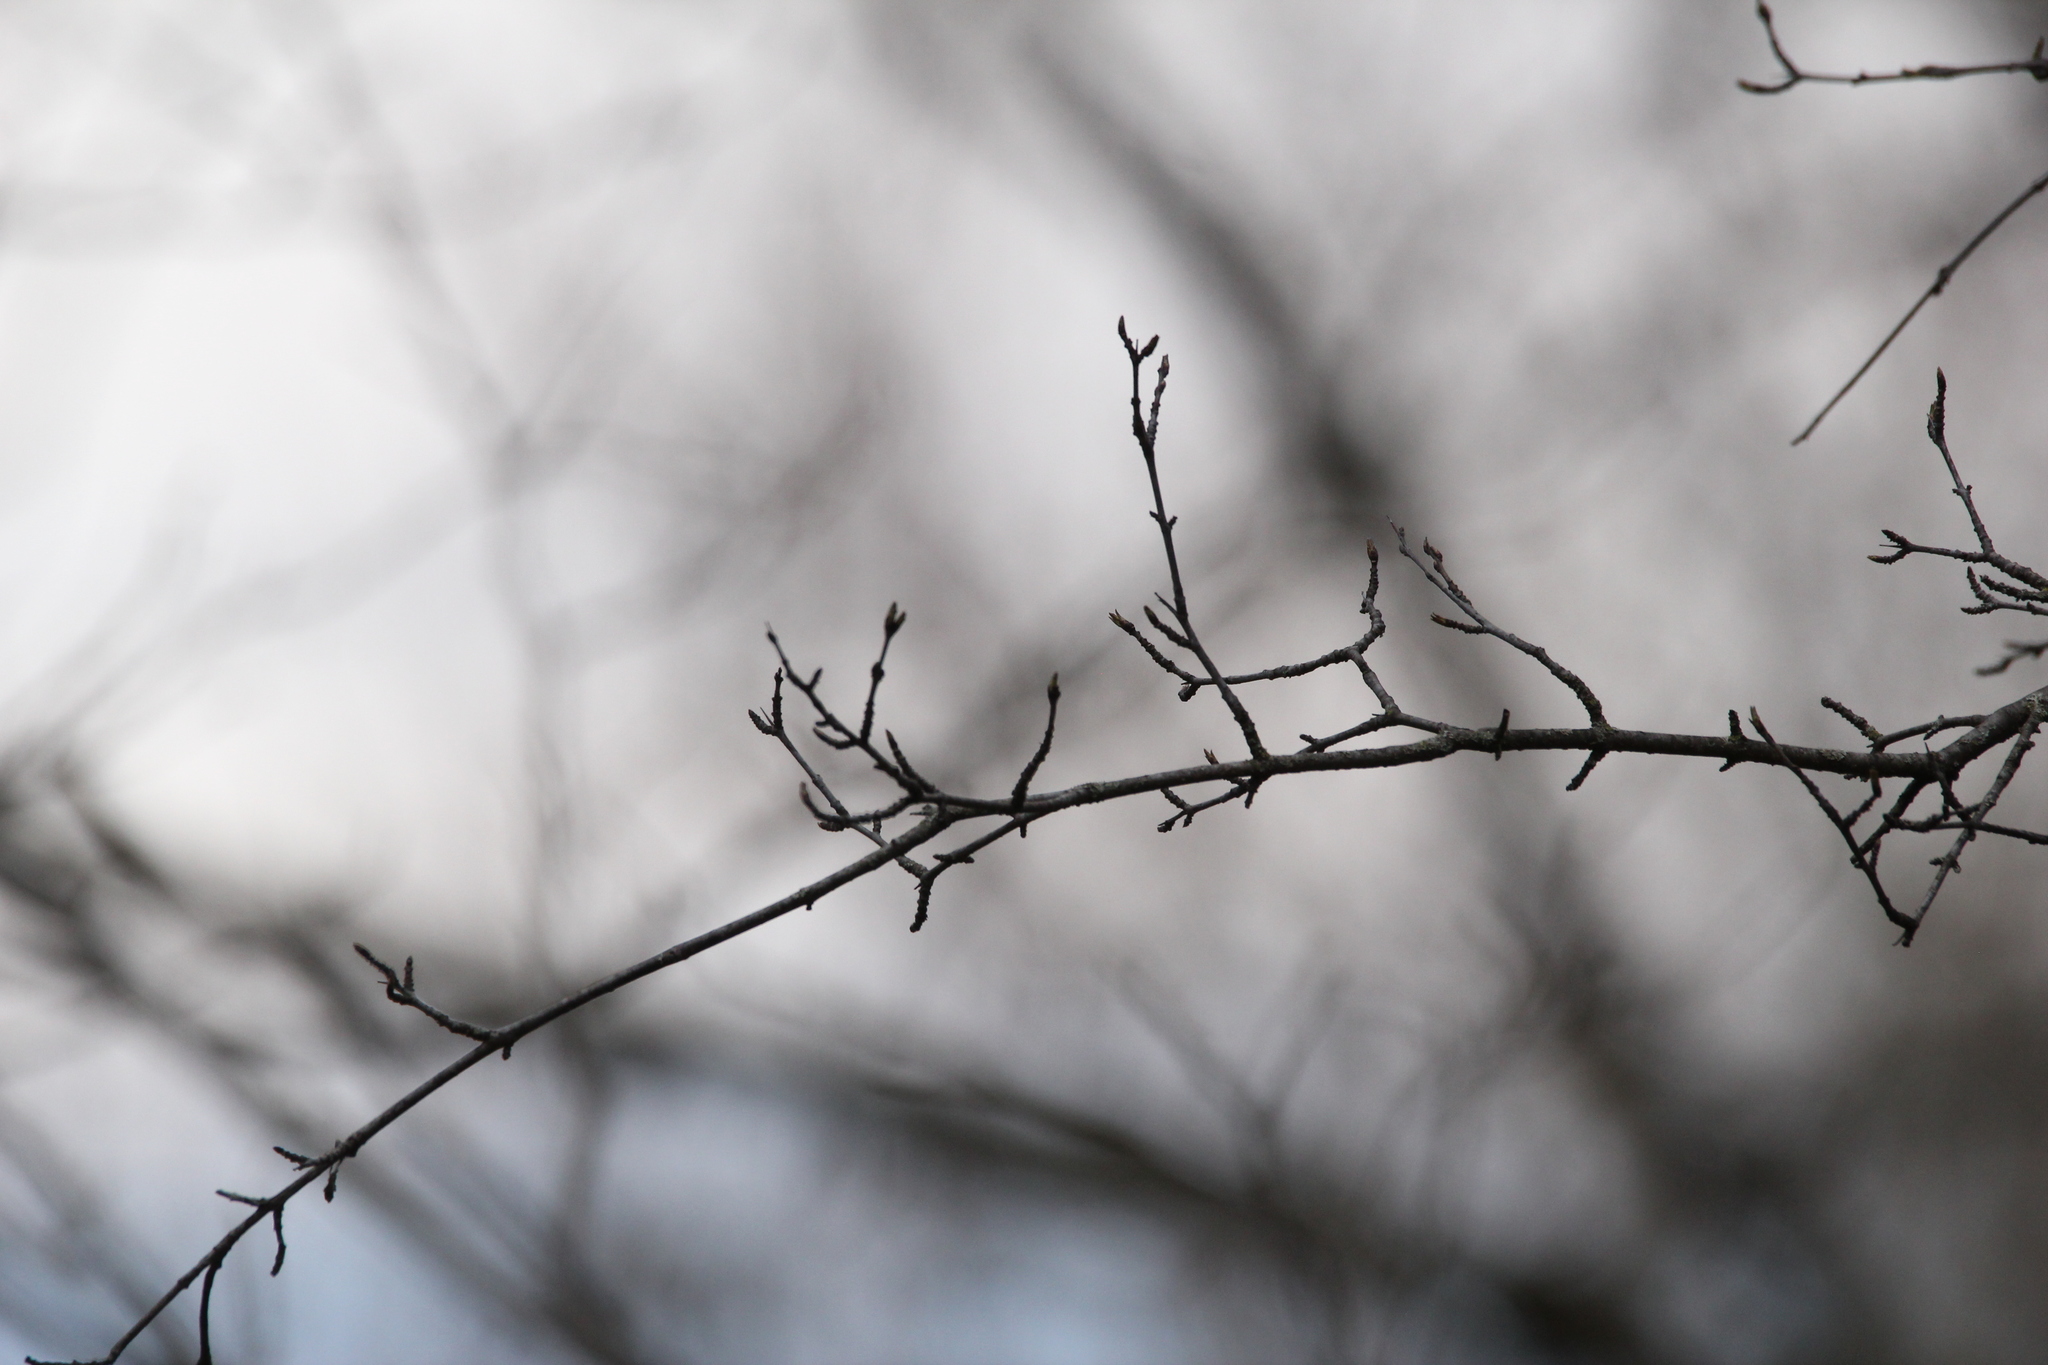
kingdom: Plantae
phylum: Tracheophyta
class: Magnoliopsida
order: Rosales
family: Rhamnaceae
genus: Rhamnus
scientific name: Rhamnus cathartica
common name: Common buckthorn
